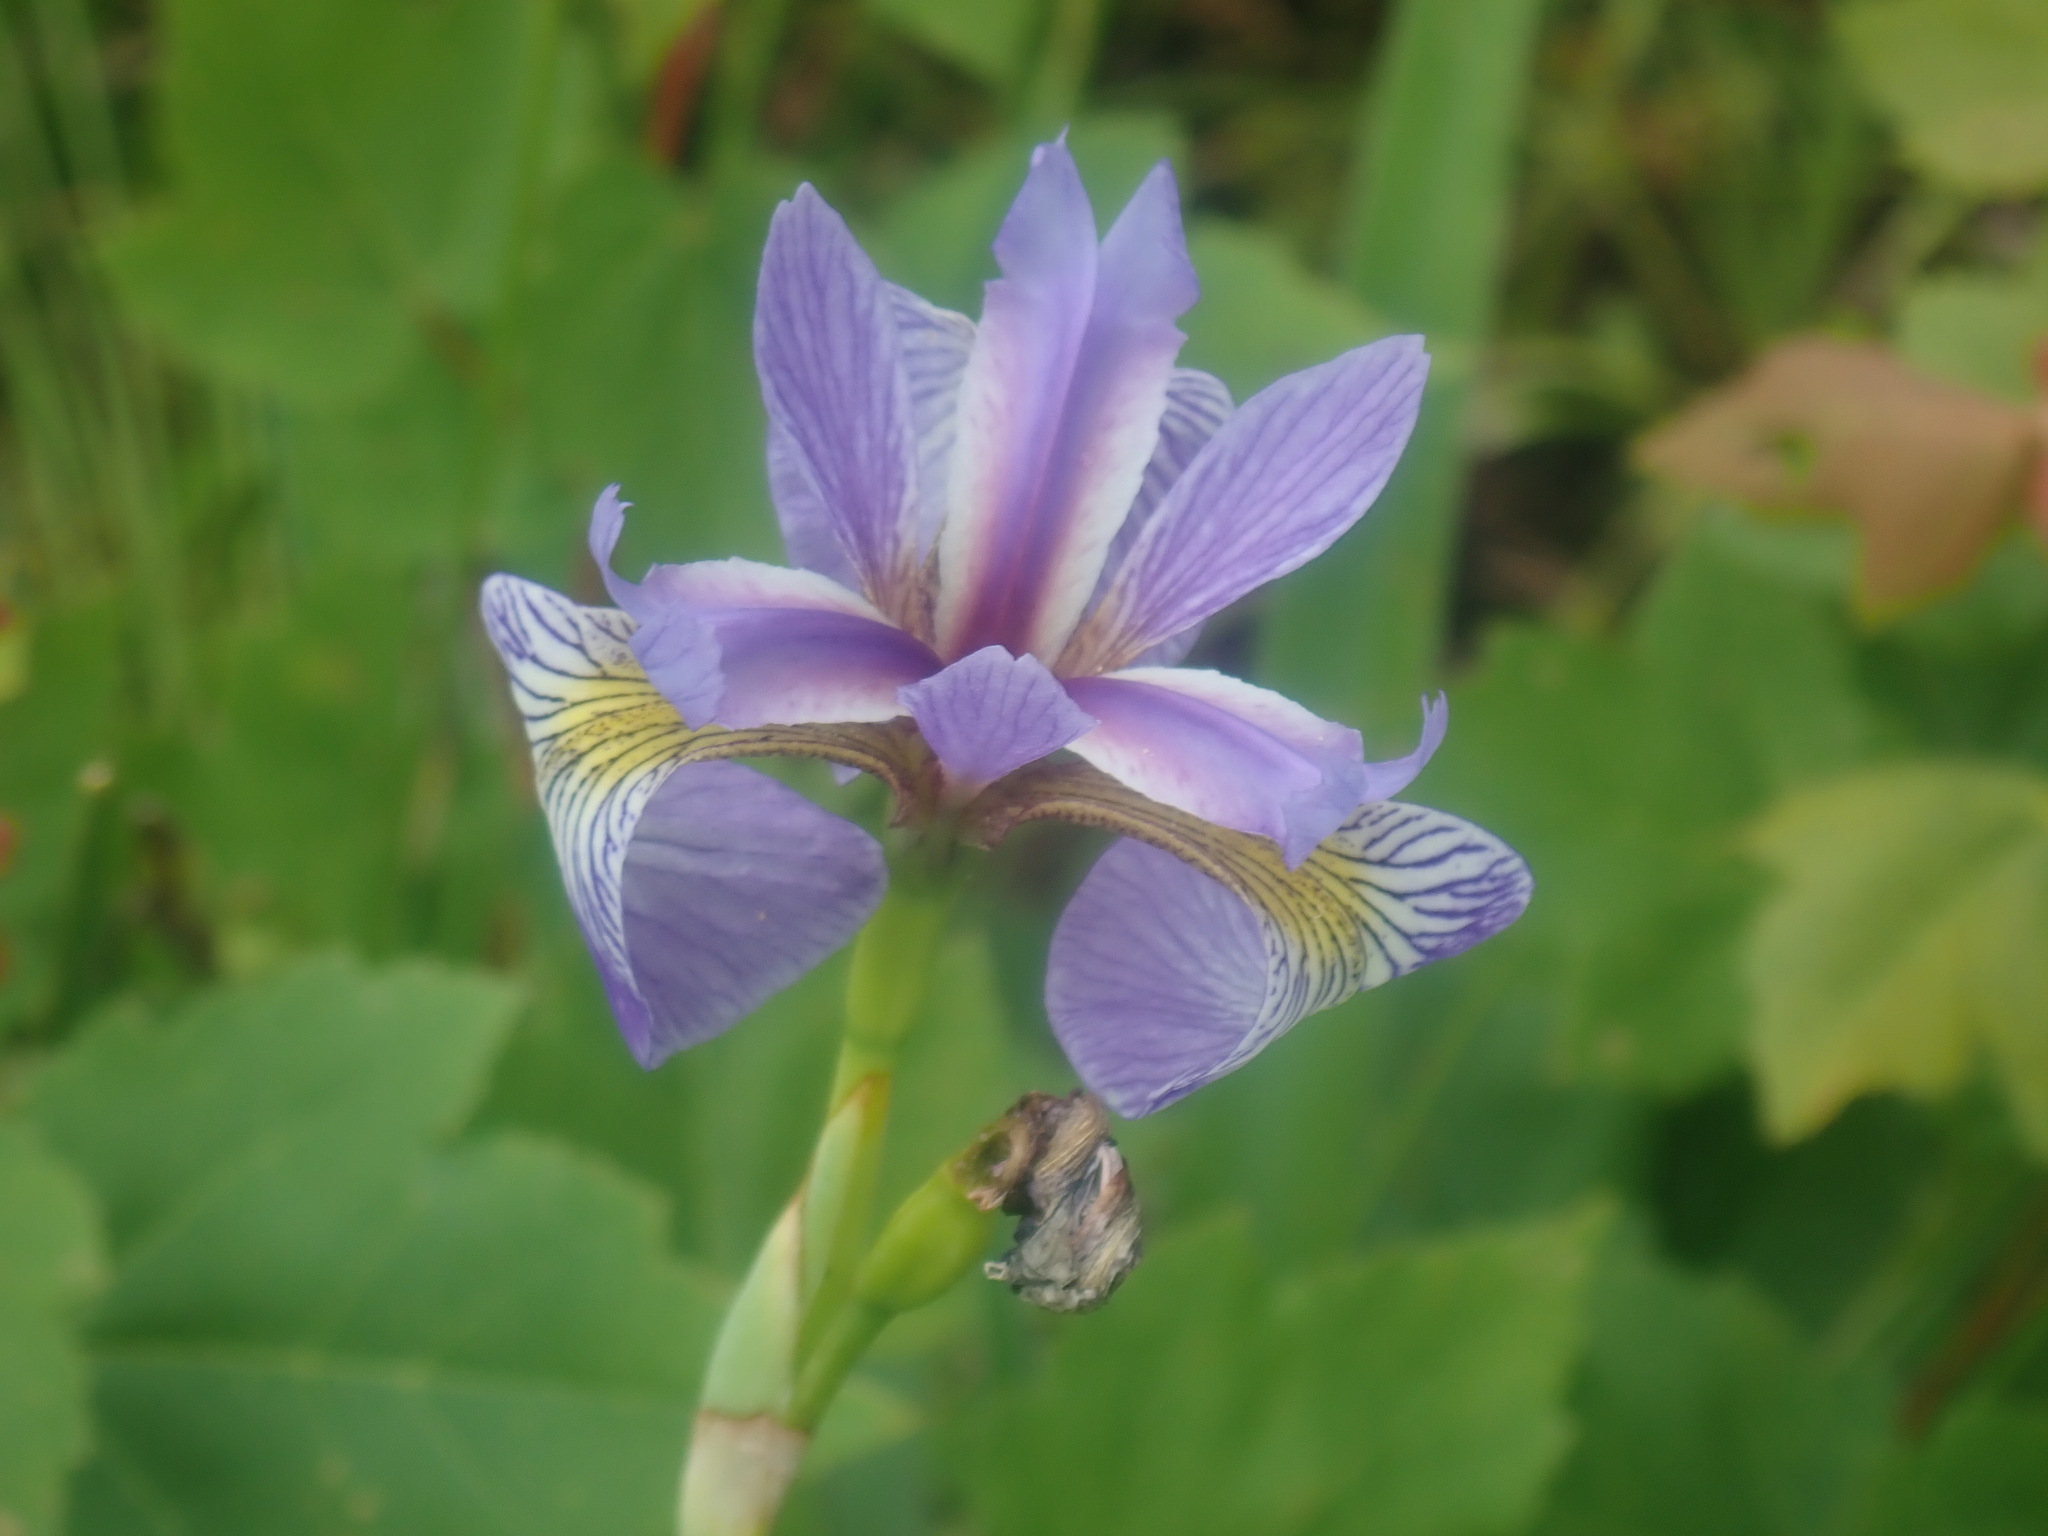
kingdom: Plantae
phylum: Tracheophyta
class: Liliopsida
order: Asparagales
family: Iridaceae
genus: Iris
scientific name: Iris versicolor
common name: Purple iris
